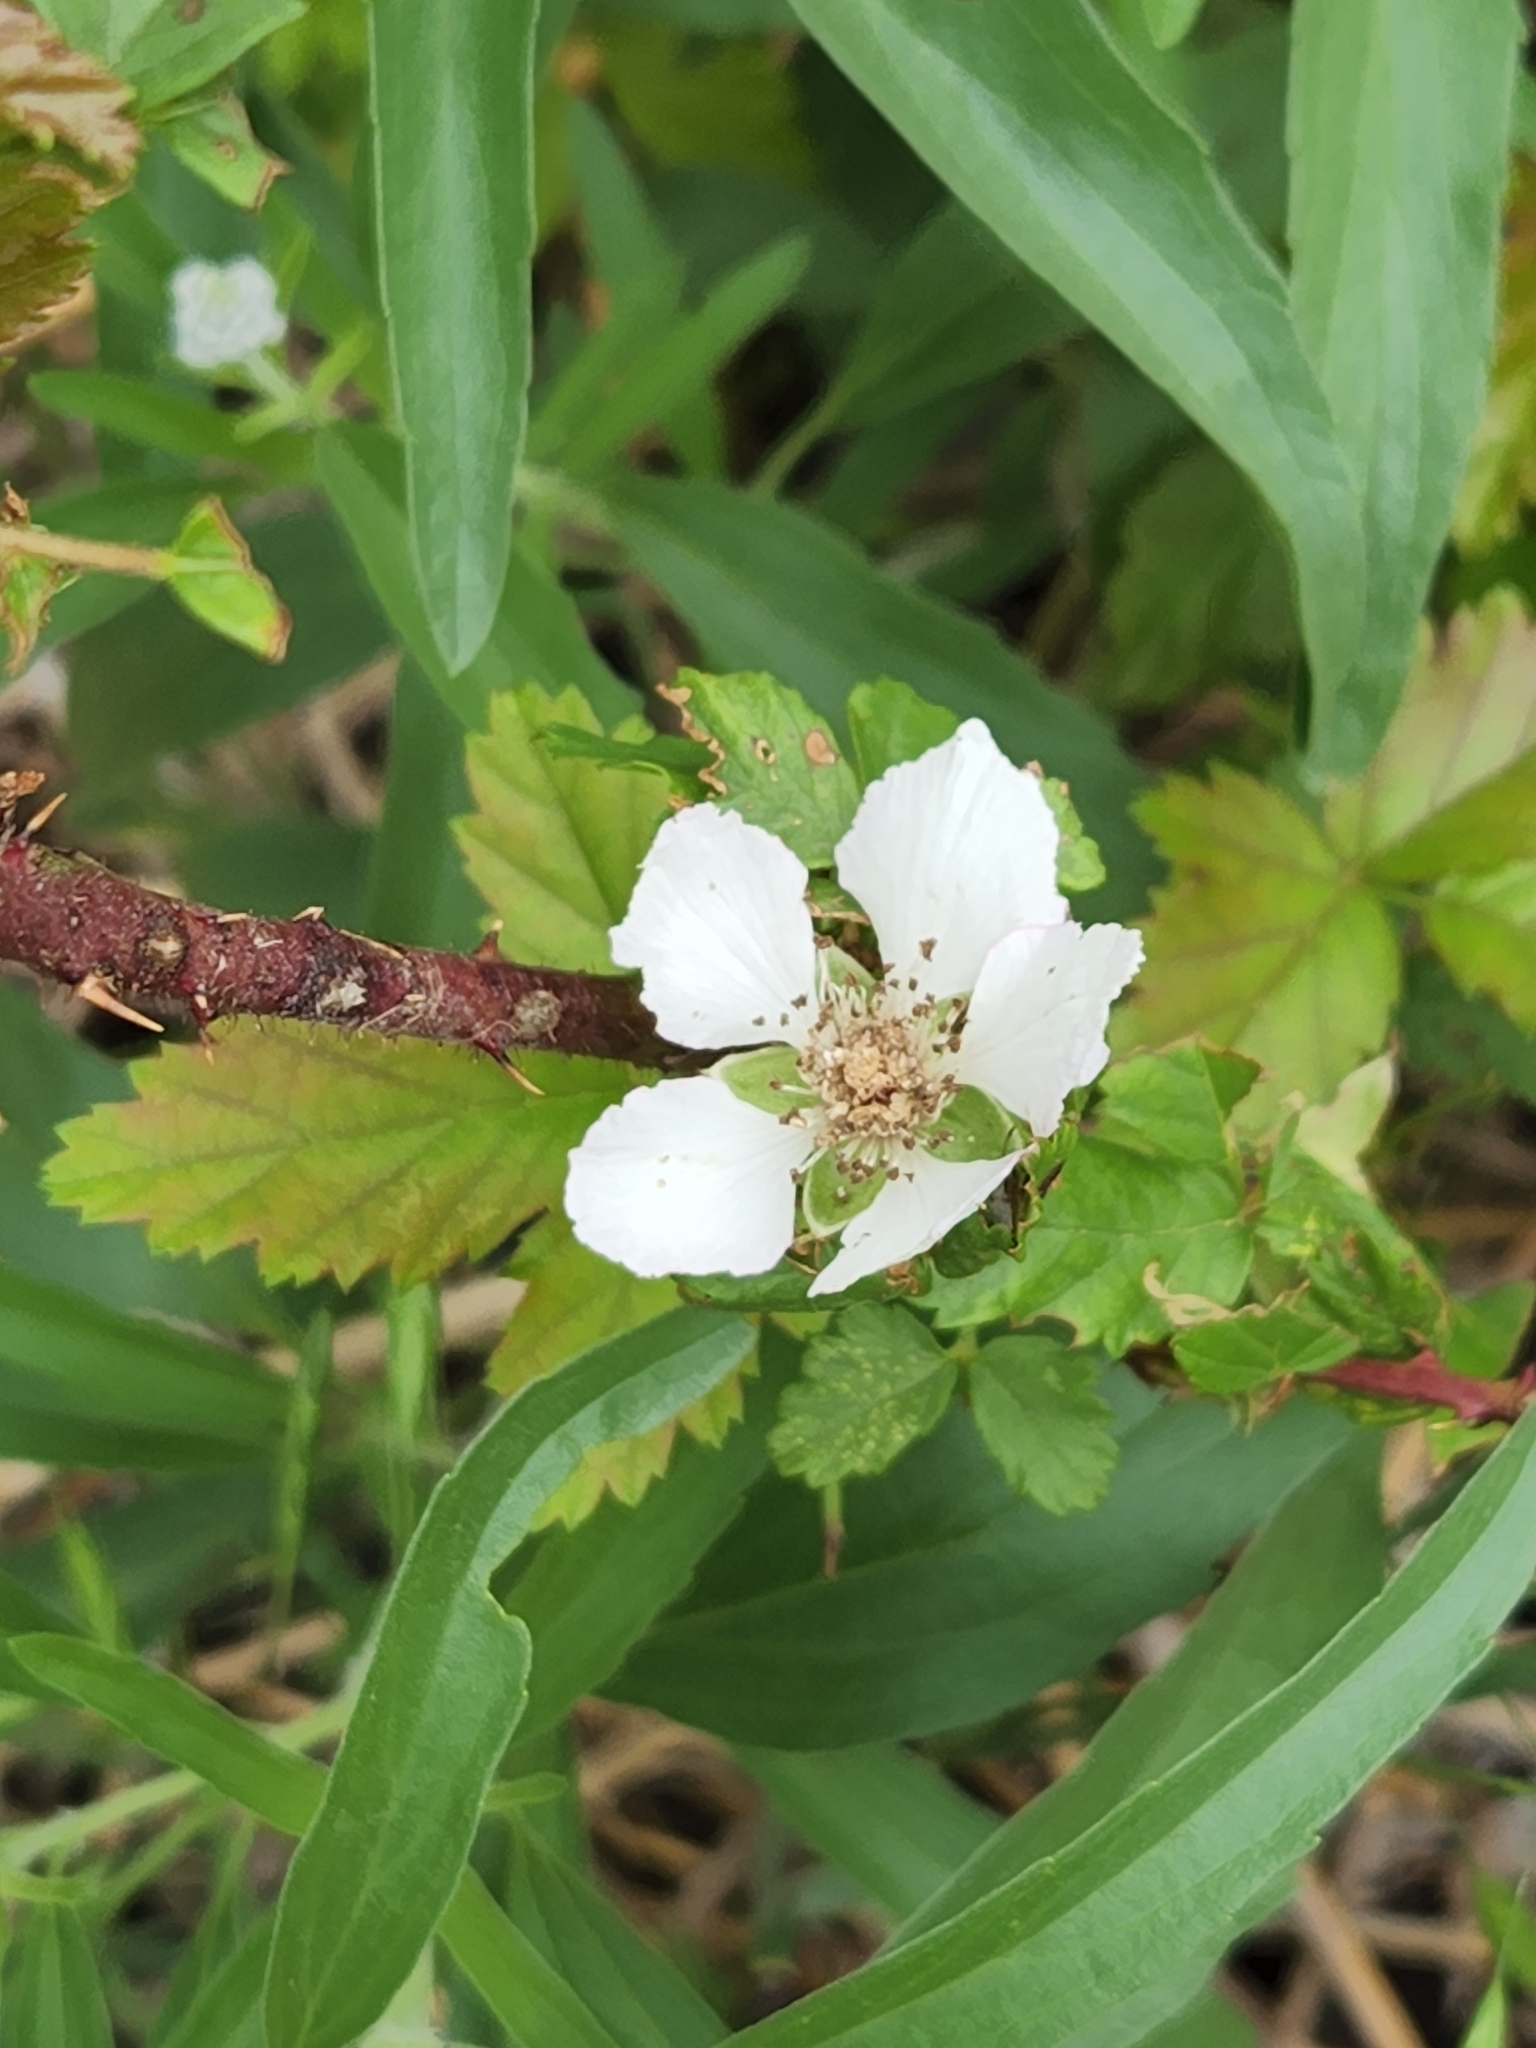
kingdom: Plantae
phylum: Tracheophyta
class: Magnoliopsida
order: Rosales
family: Rosaceae
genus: Rubus
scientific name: Rubus trivialis
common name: Southern dewberry
